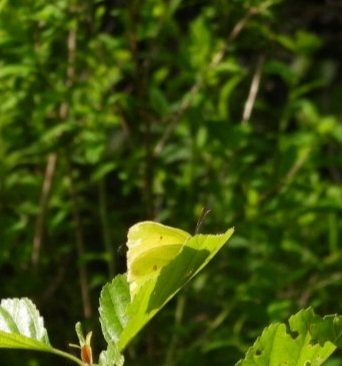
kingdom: Animalia
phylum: Arthropoda
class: Insecta
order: Lepidoptera
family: Pieridae
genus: Gonepteryx
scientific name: Gonepteryx rhamni
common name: Brimstone
